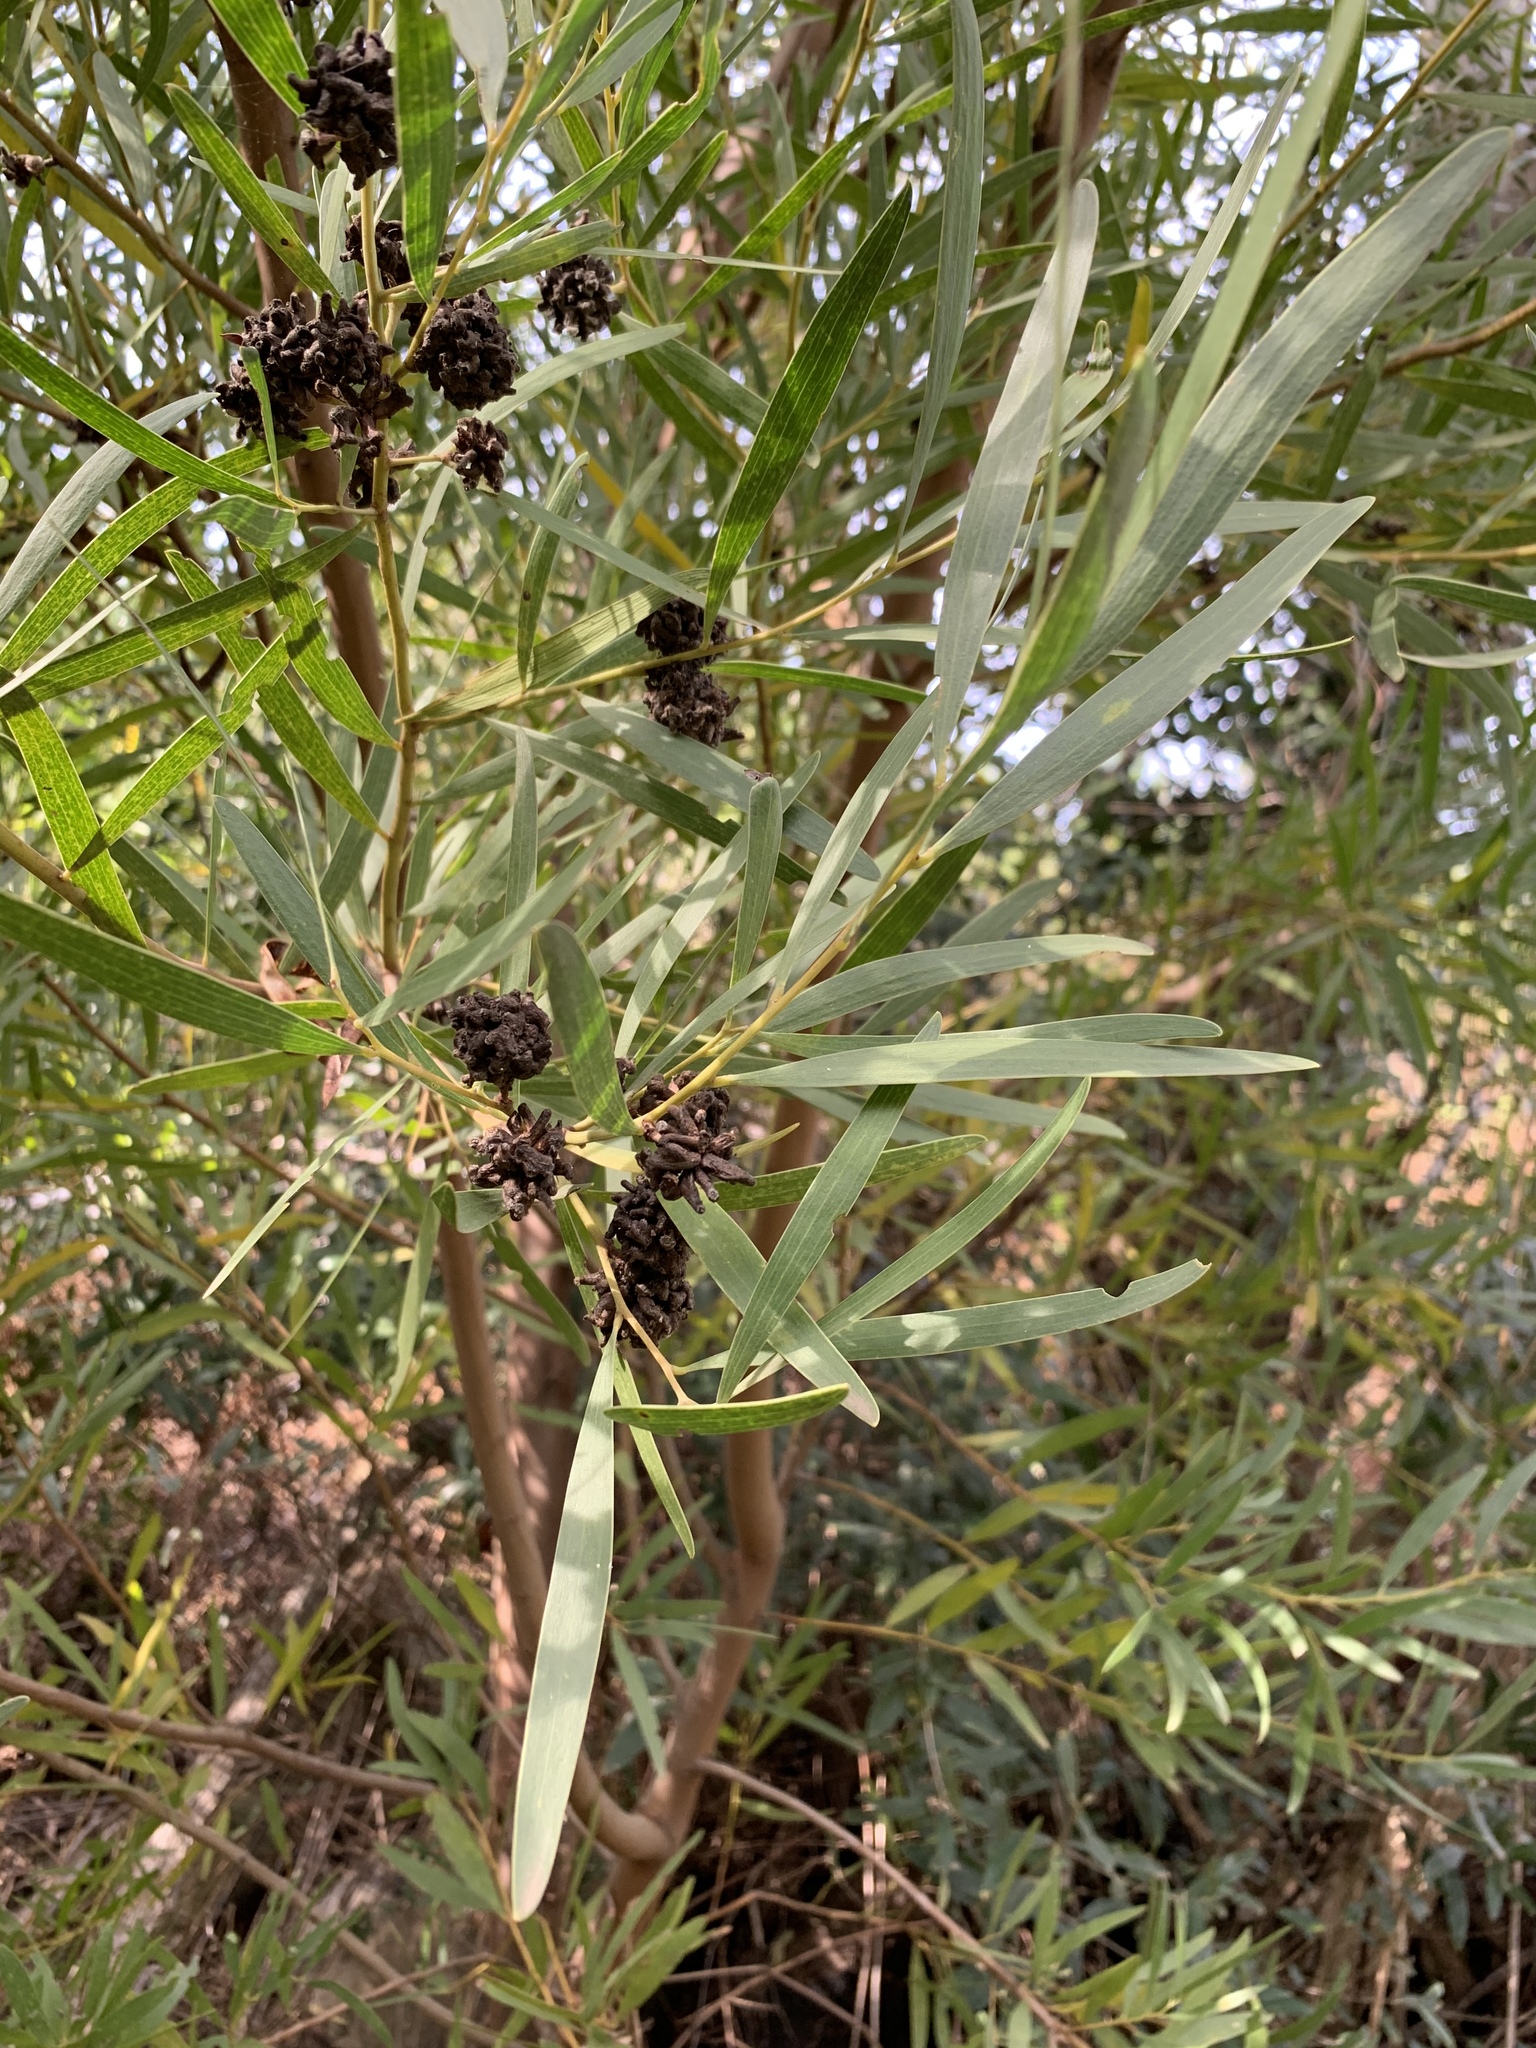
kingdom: Plantae
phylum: Tracheophyta
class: Magnoliopsida
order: Fabales
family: Fabaceae
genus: Acacia
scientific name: Acacia cyclops
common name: Coastal wattle
